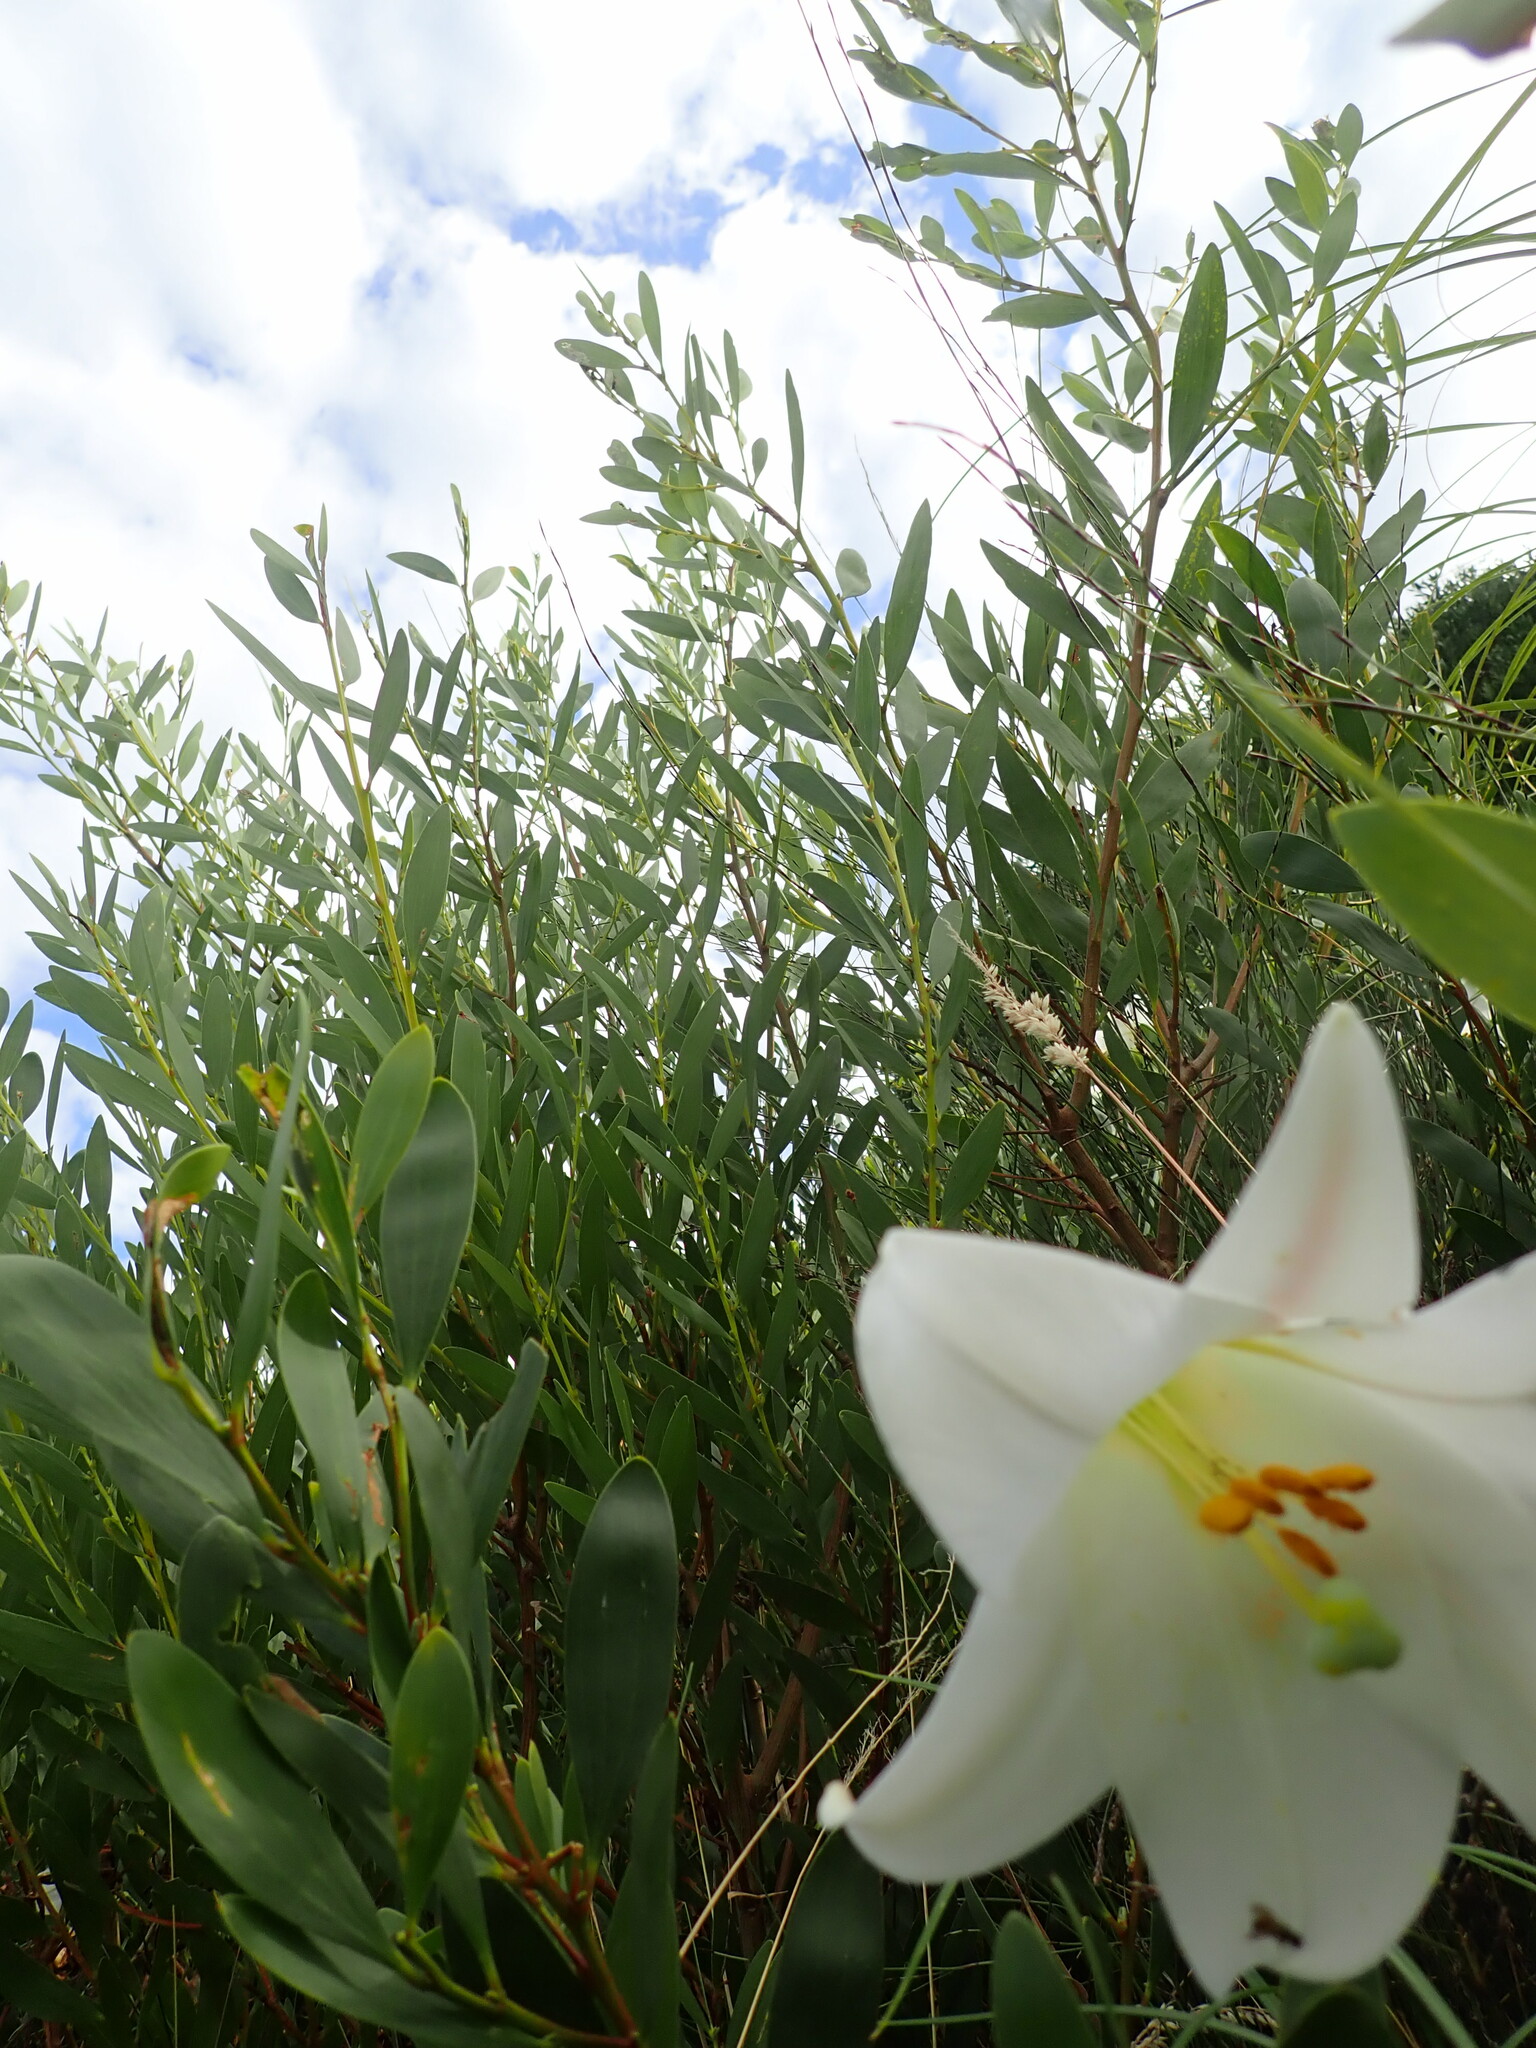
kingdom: Plantae
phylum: Tracheophyta
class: Liliopsida
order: Liliales
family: Liliaceae
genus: Lilium
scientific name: Lilium formosanum
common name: Formosa lily
